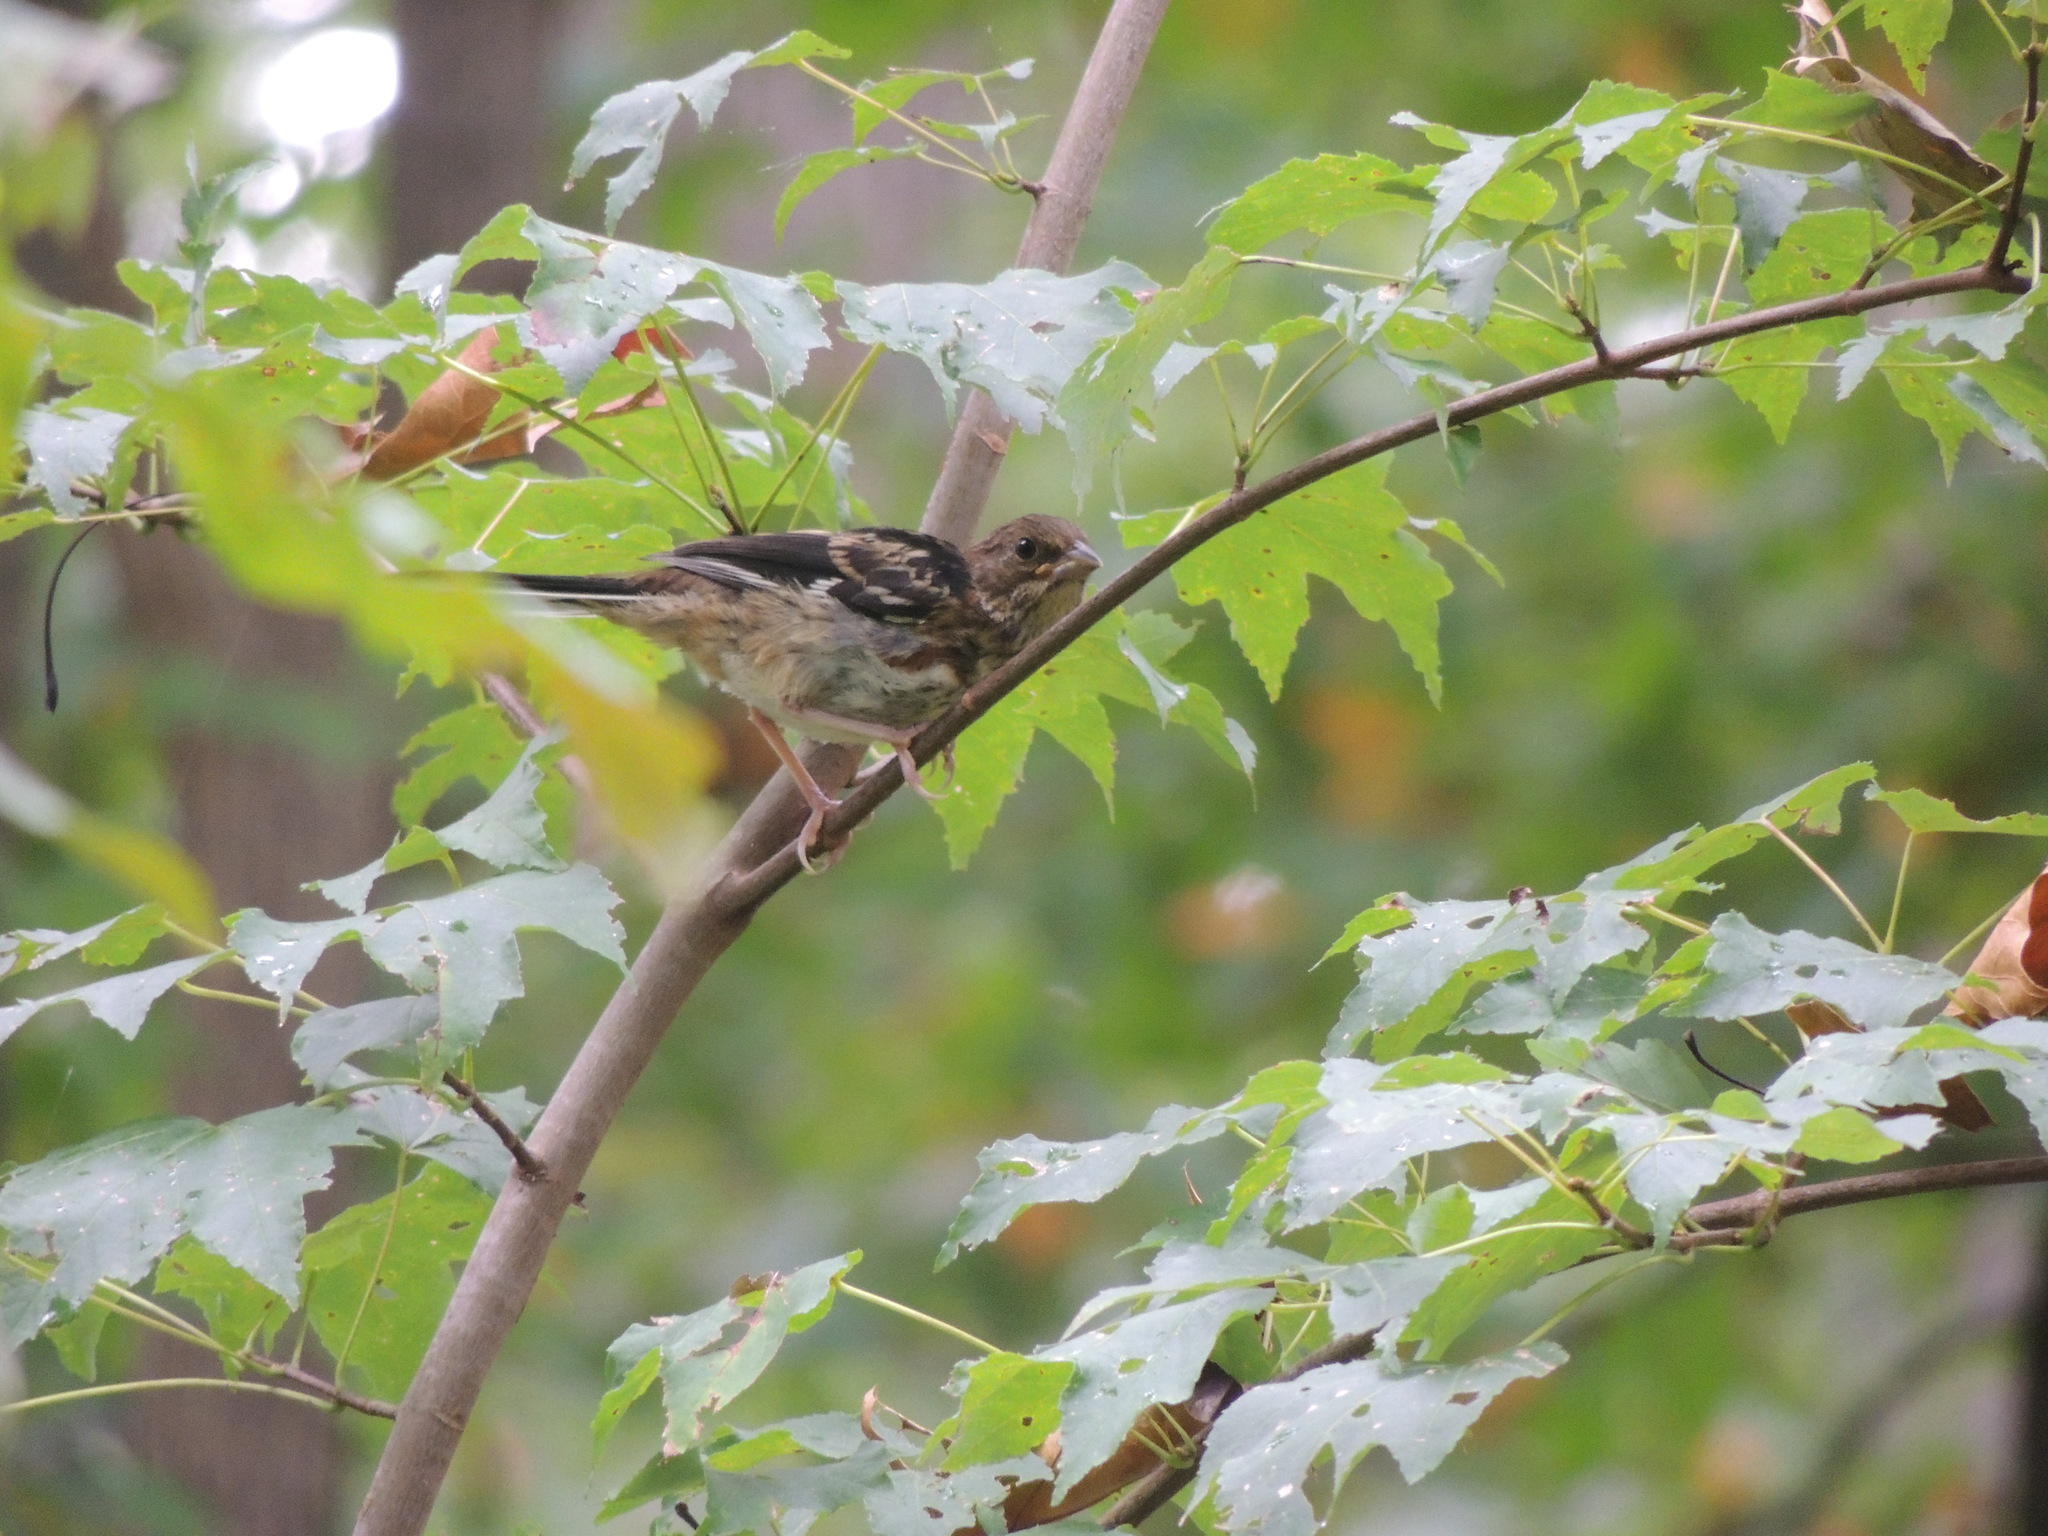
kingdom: Animalia
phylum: Chordata
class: Aves
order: Passeriformes
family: Passerellidae
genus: Pipilo
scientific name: Pipilo erythrophthalmus
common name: Eastern towhee
